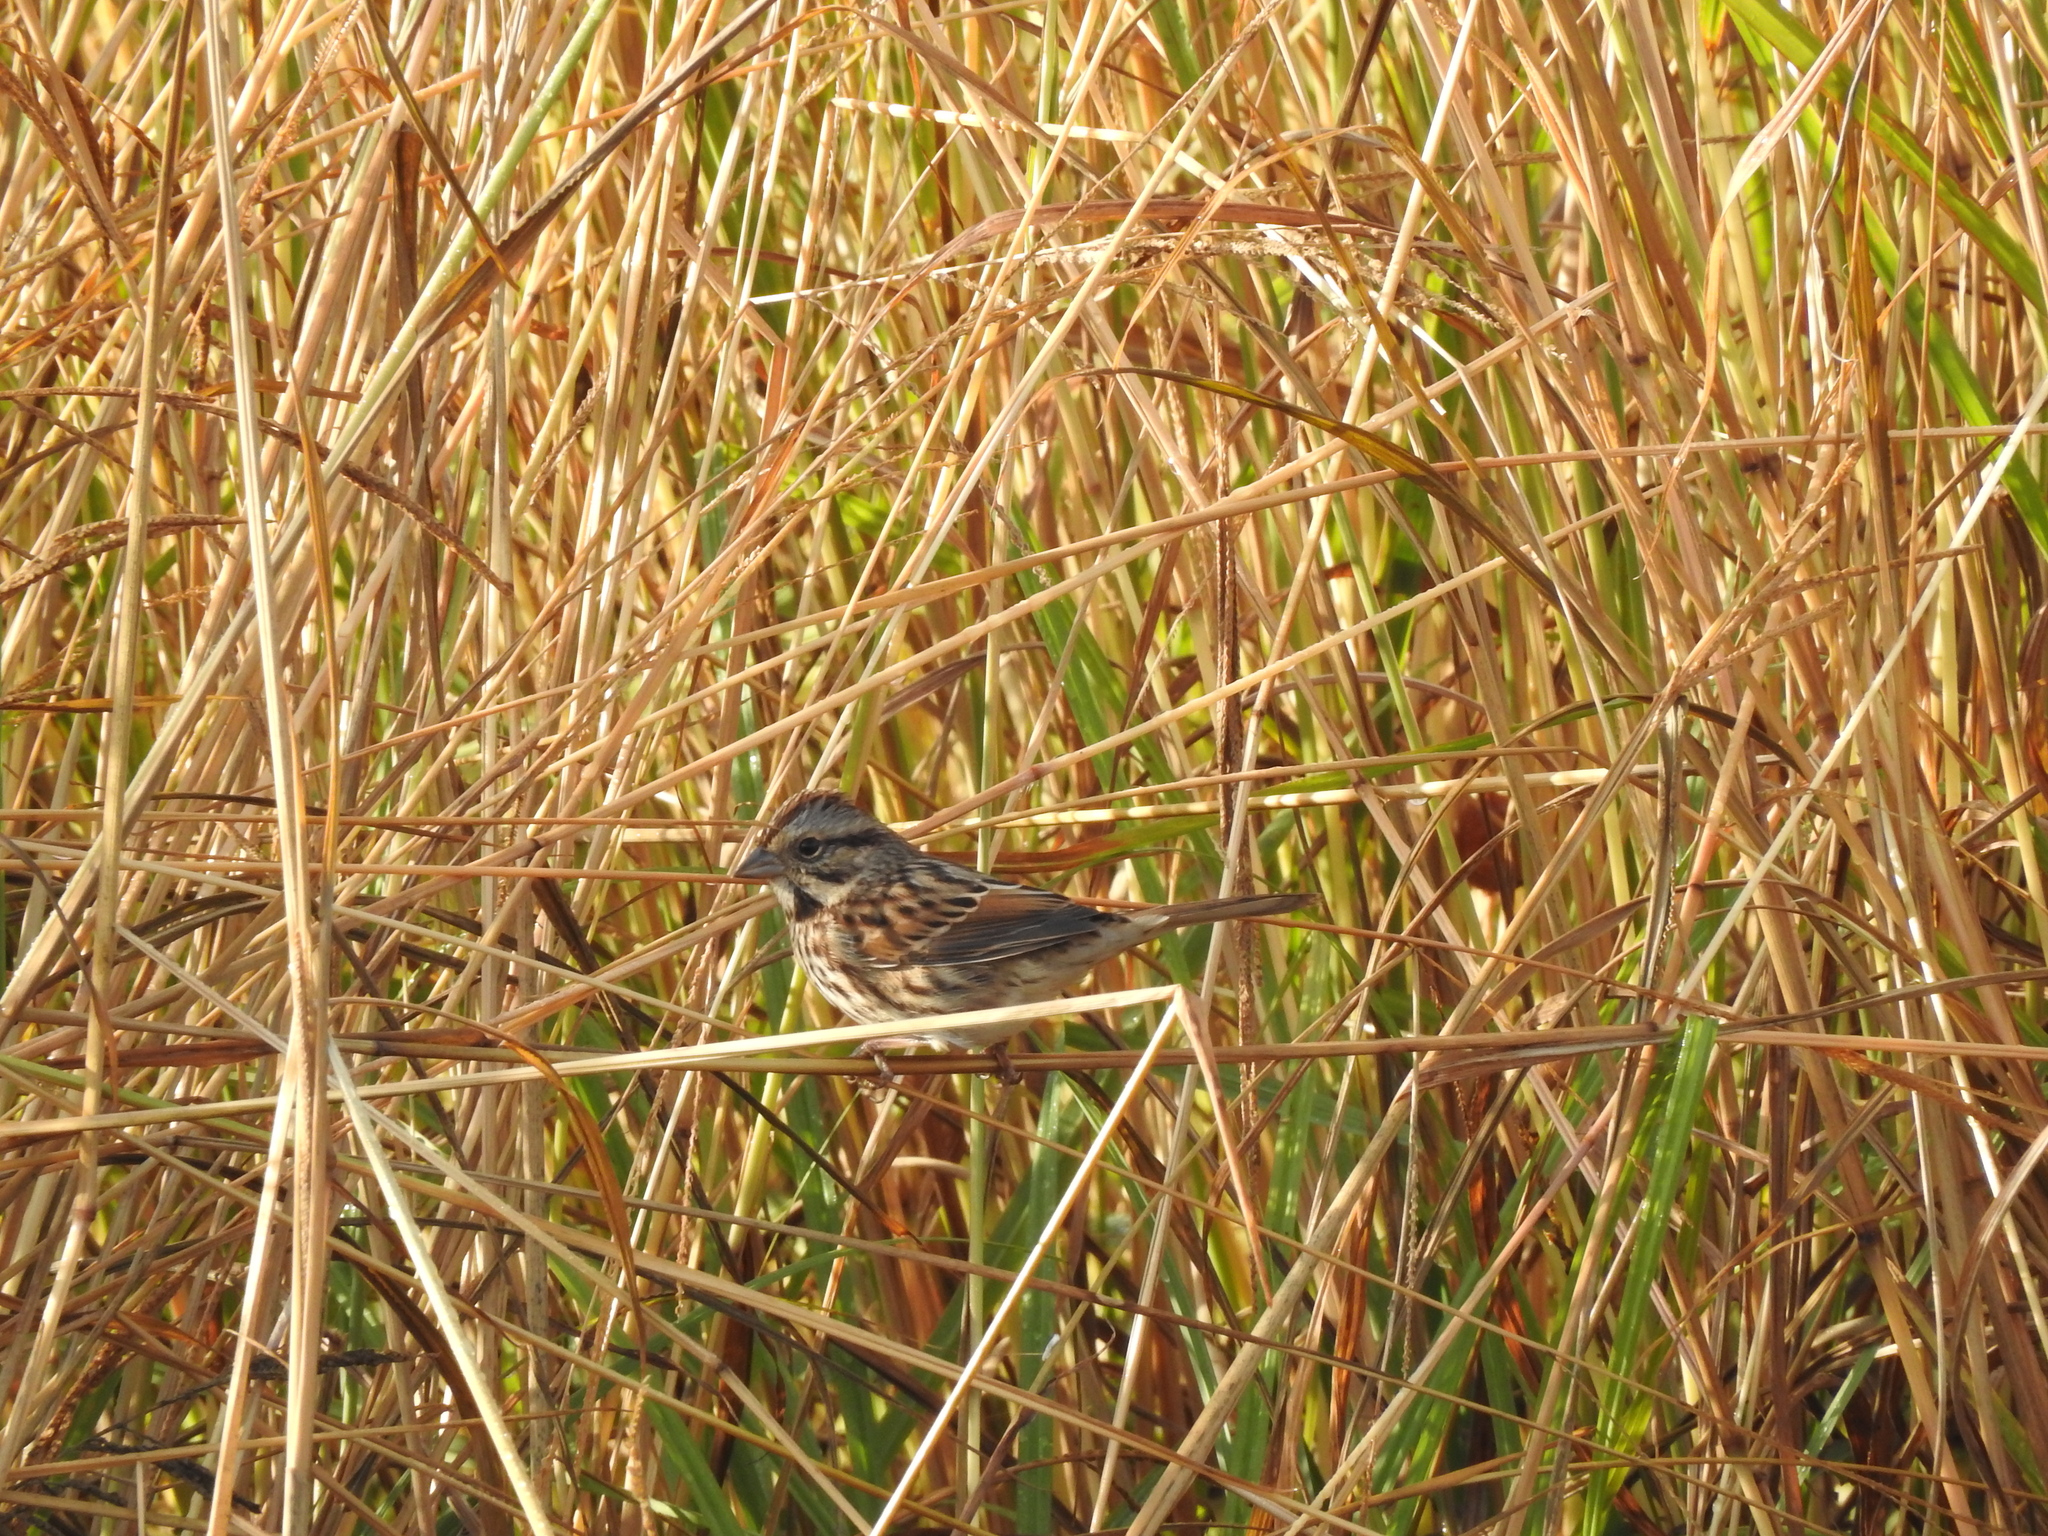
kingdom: Animalia
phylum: Chordata
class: Aves
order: Passeriformes
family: Passerellidae
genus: Melospiza
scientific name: Melospiza melodia
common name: Song sparrow
